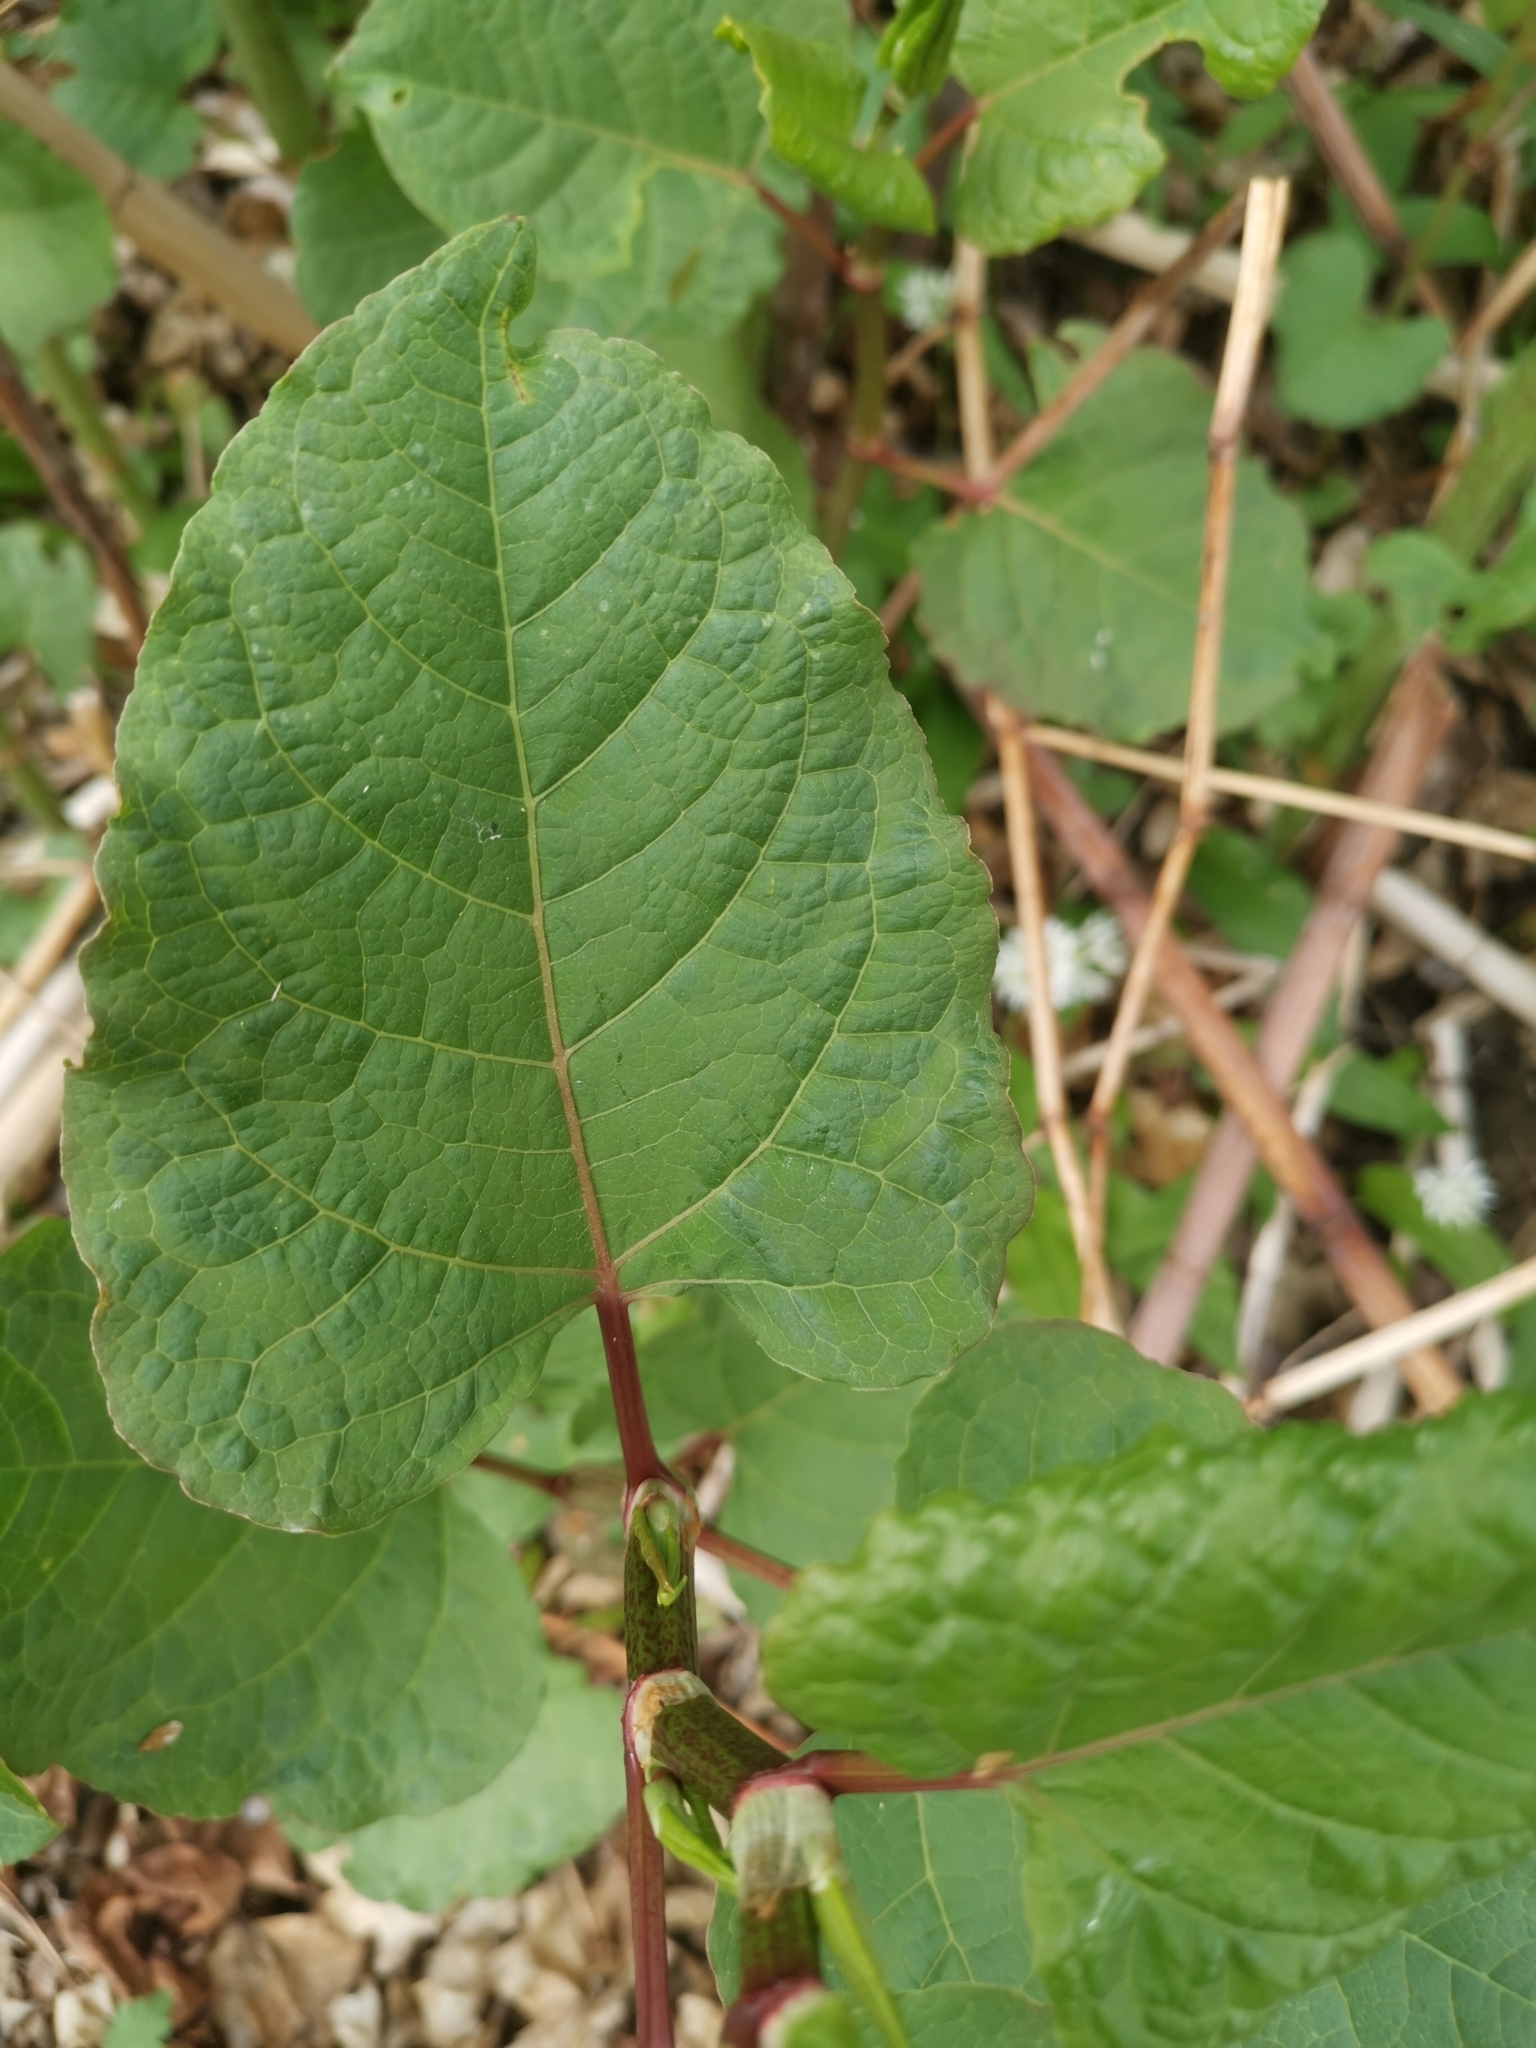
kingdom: Plantae
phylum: Tracheophyta
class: Magnoliopsida
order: Caryophyllales
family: Polygonaceae
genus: Reynoutria
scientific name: Reynoutria bohemica
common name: Bohemian knotweed
